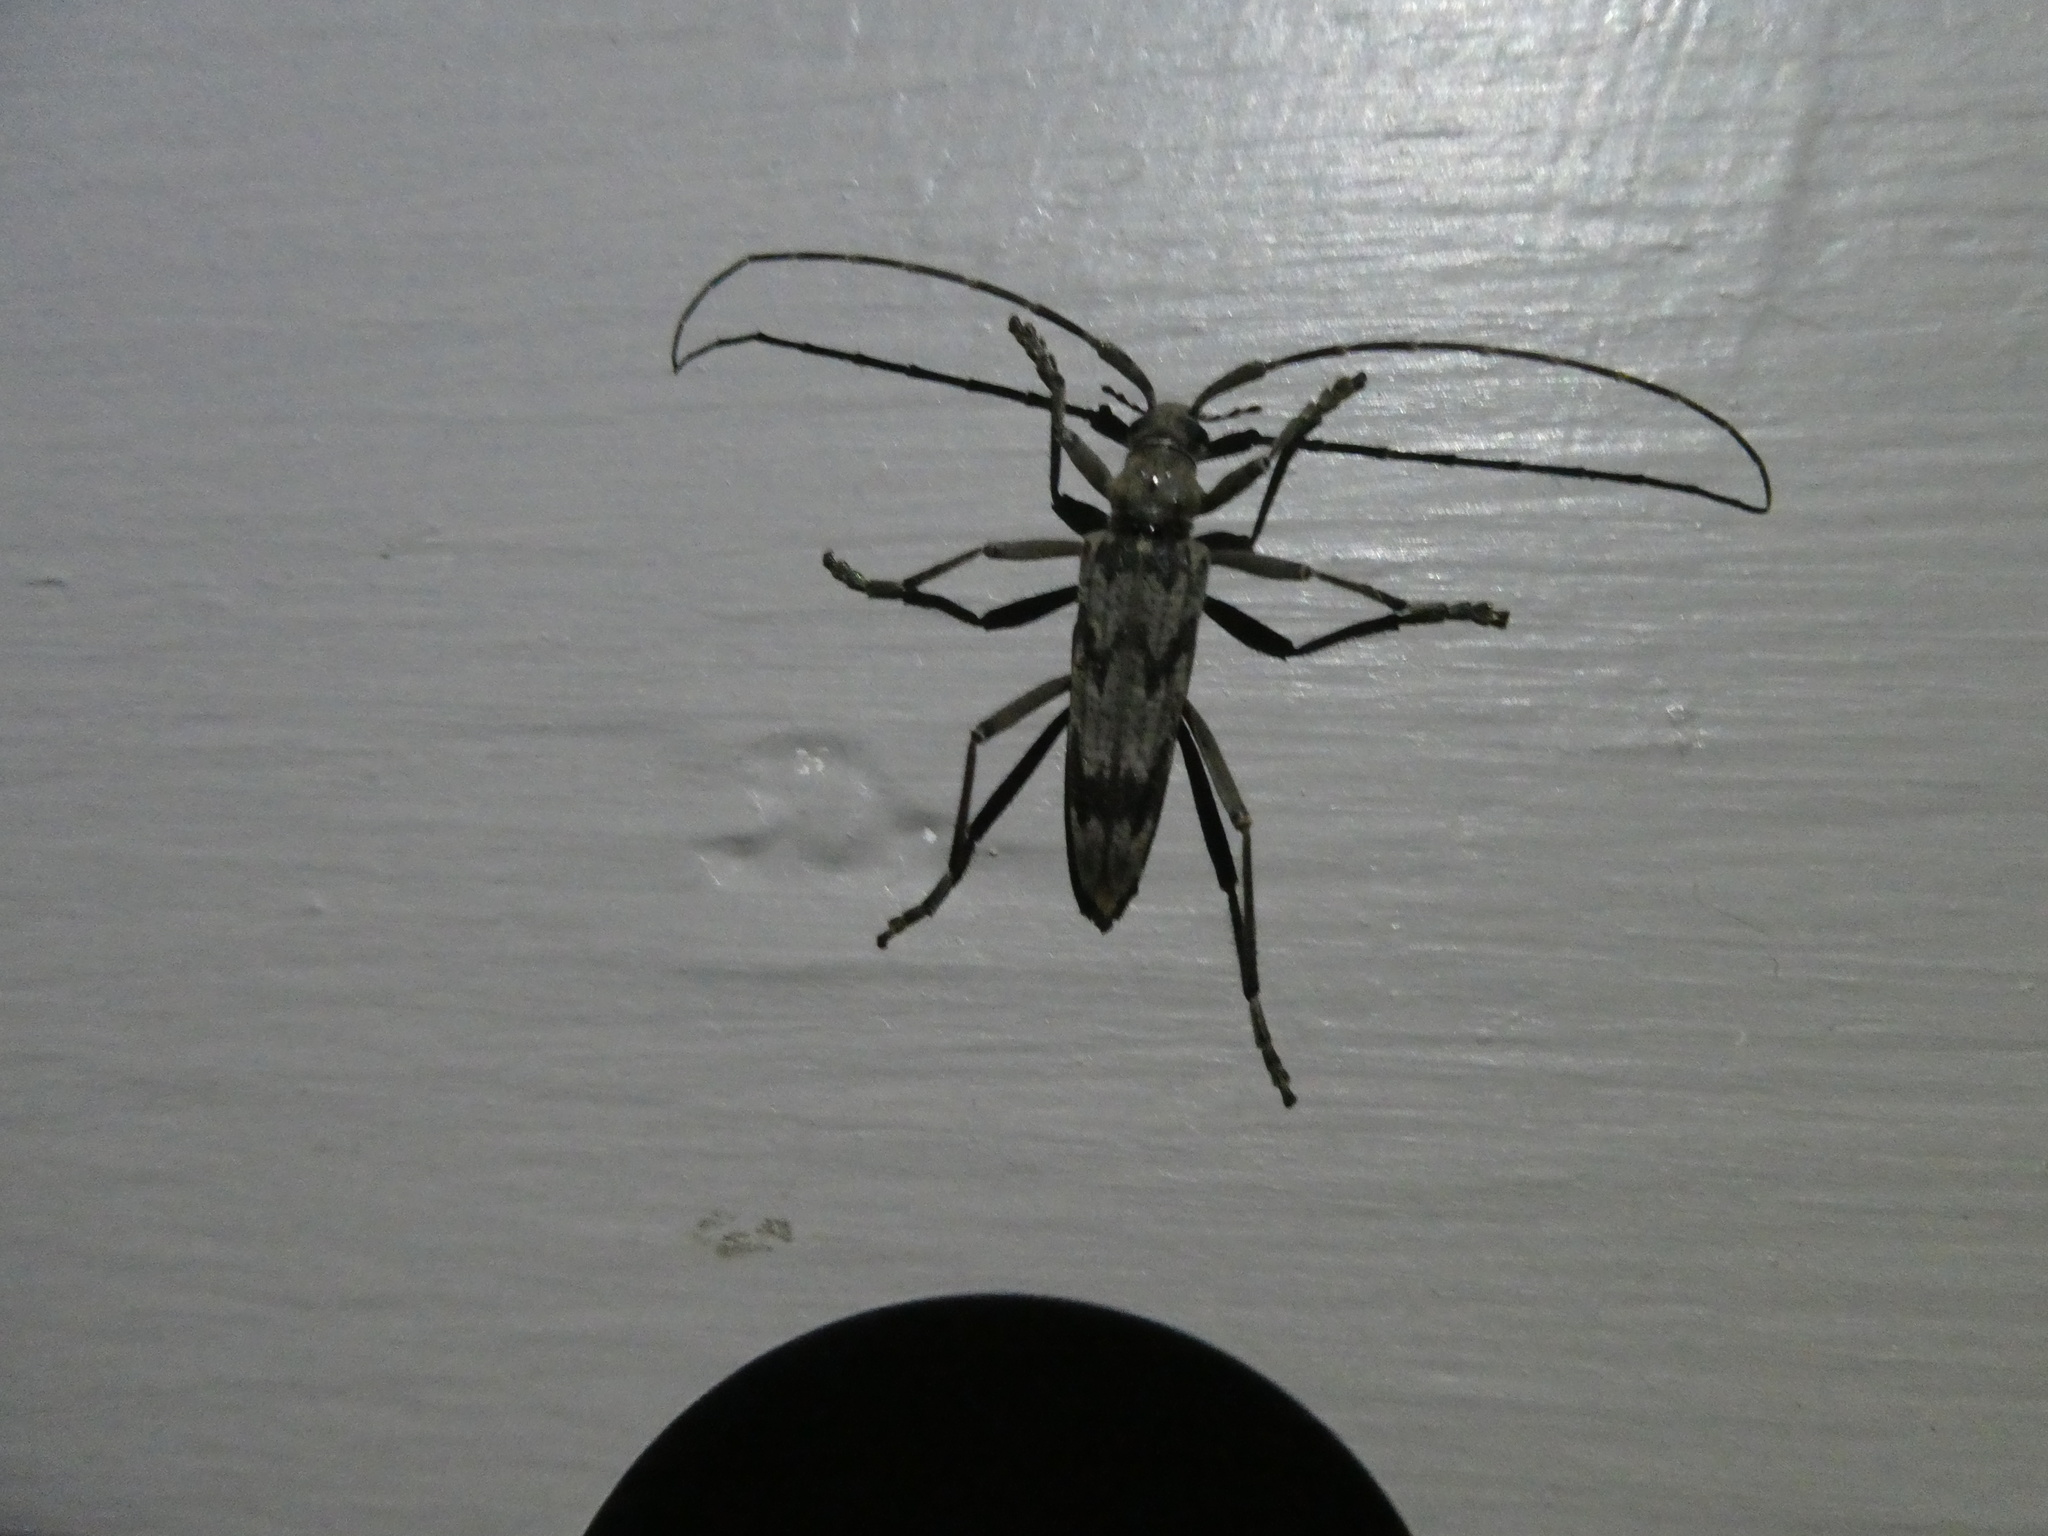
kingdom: Animalia
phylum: Arthropoda
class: Insecta
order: Coleoptera
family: Cerambycidae
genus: Elytrimitatrix
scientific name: Elytrimitatrix undata
